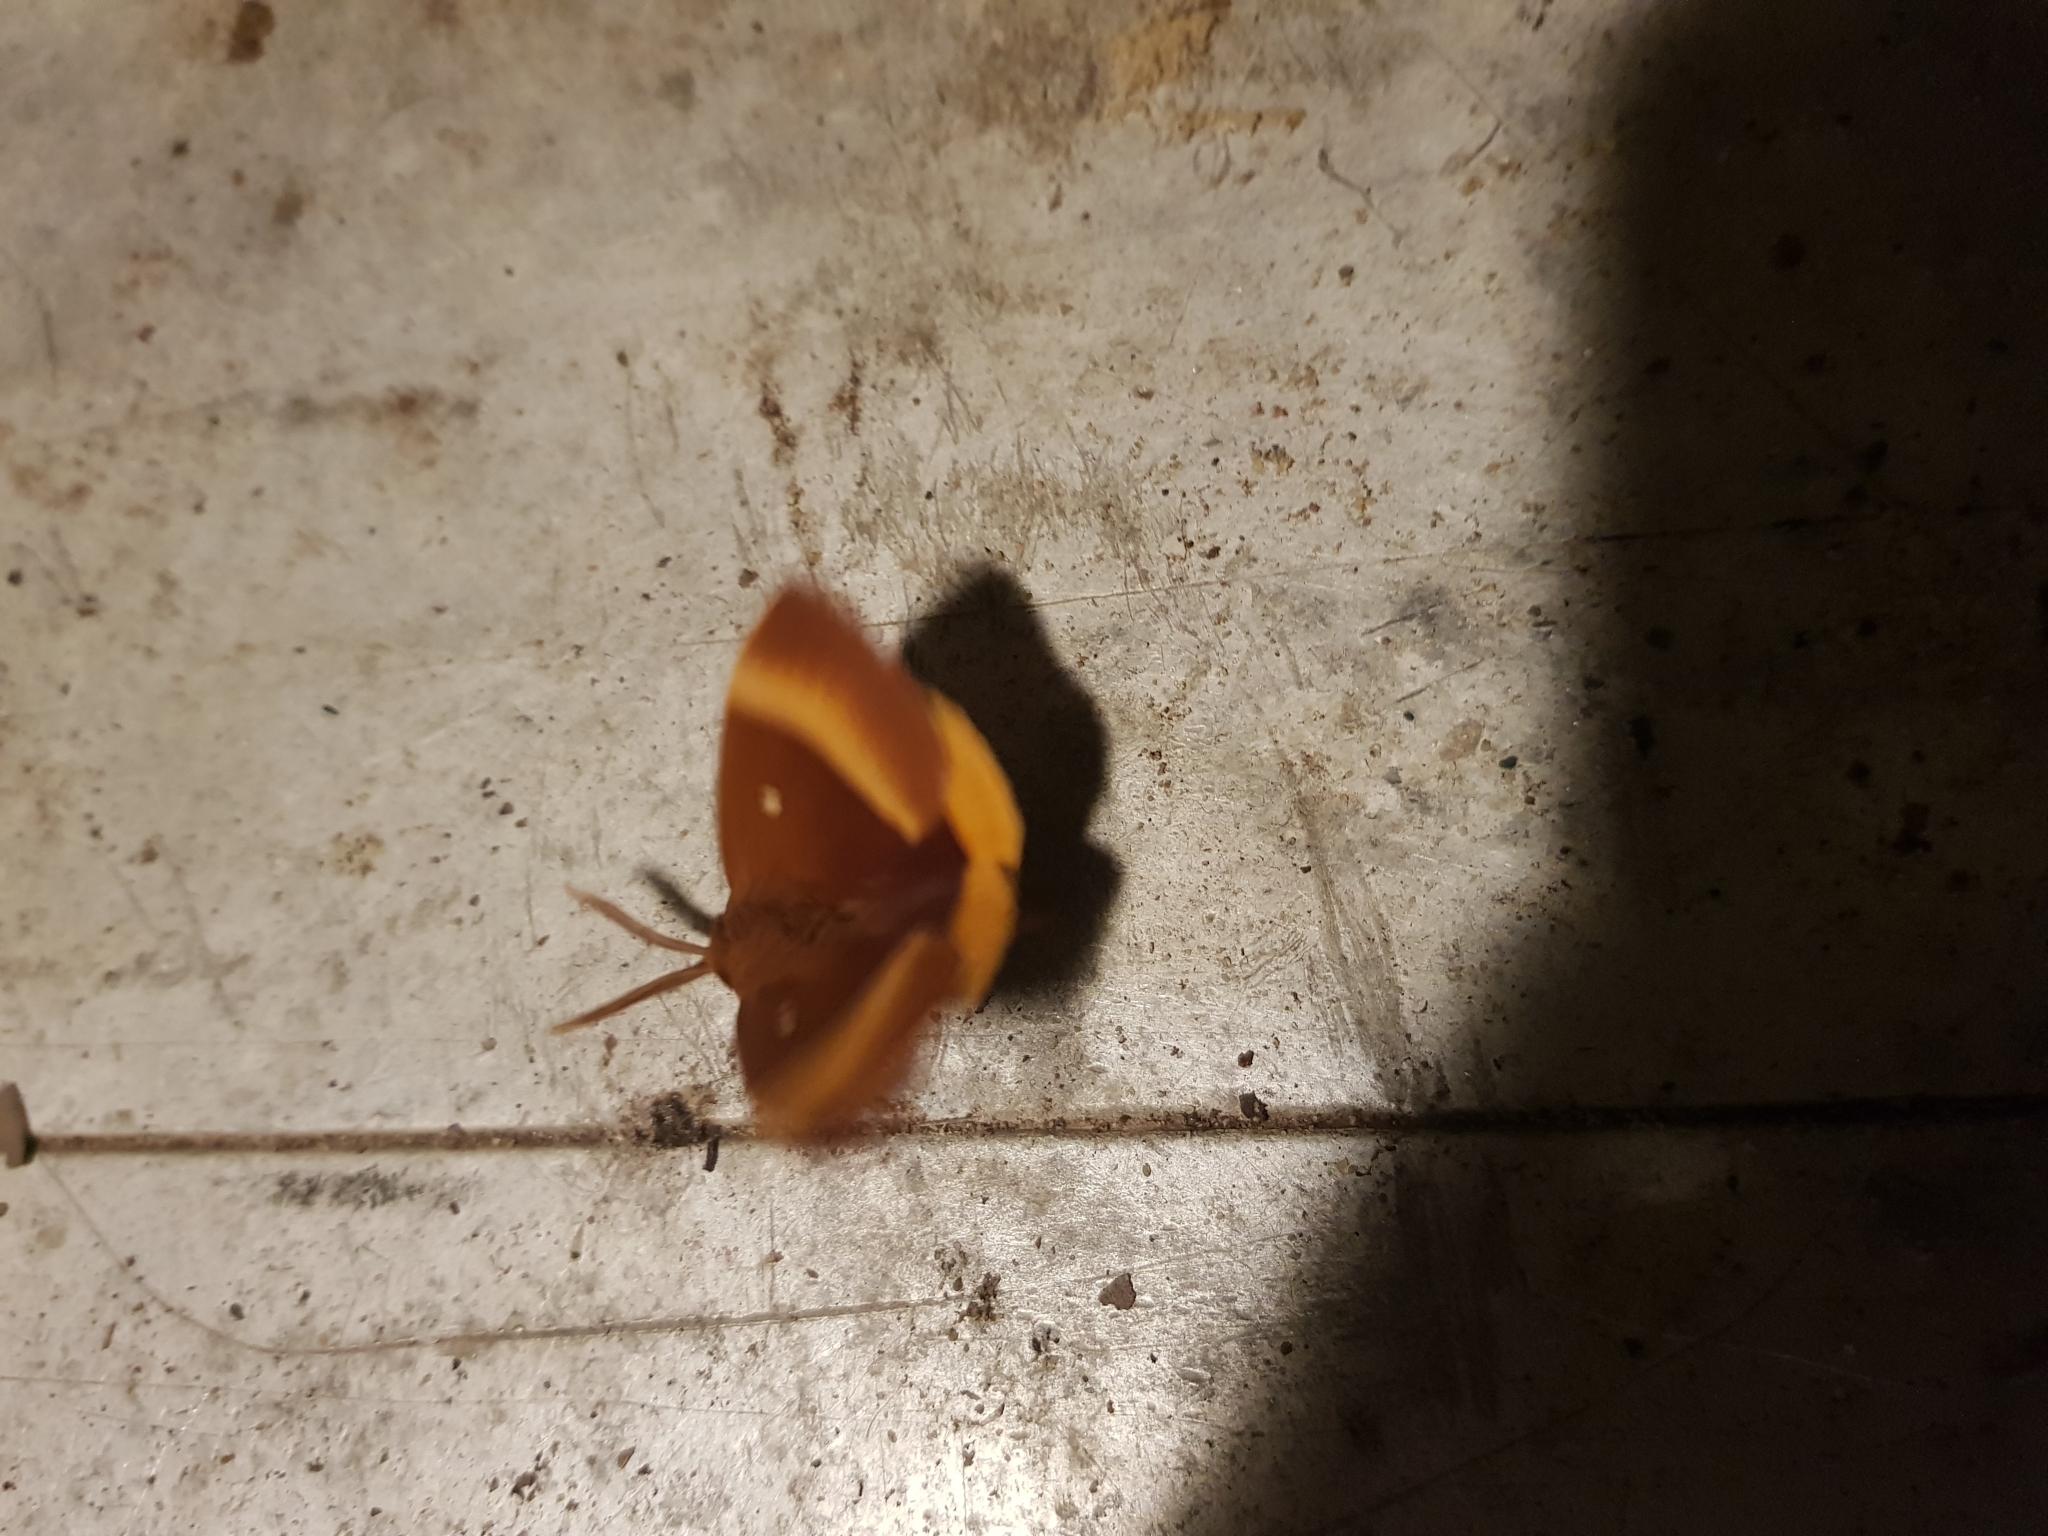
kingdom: Animalia
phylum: Arthropoda
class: Insecta
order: Lepidoptera
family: Lasiocampidae
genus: Lasiocampa
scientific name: Lasiocampa quercus
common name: Oak eggar
